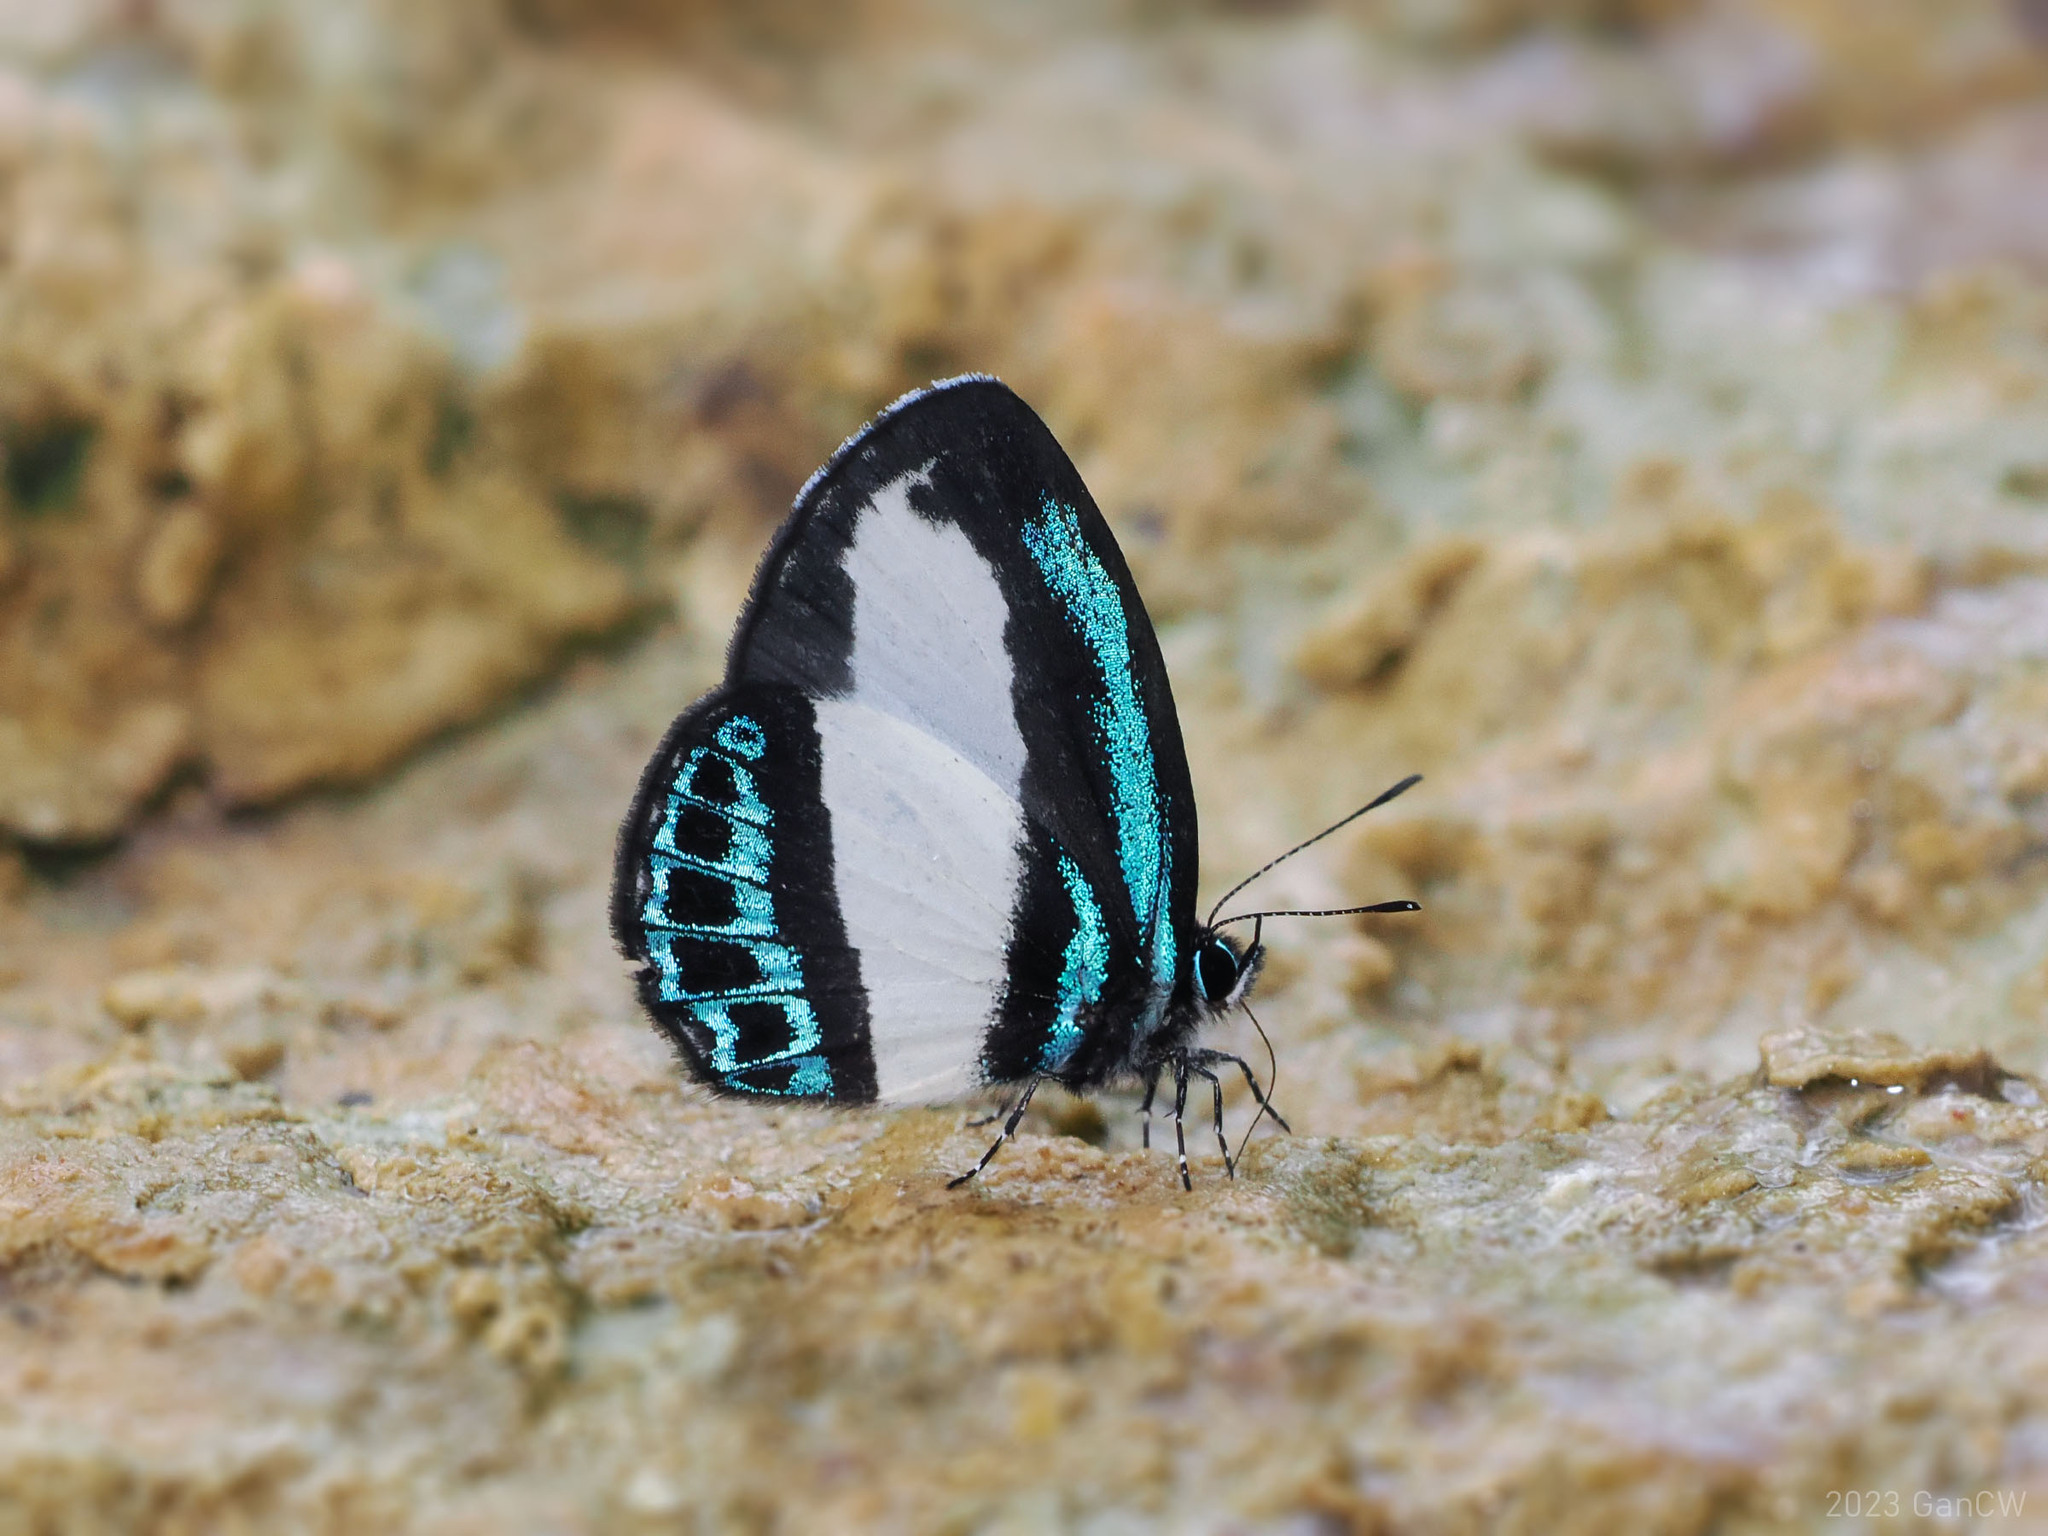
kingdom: Animalia
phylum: Arthropoda
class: Insecta
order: Lepidoptera
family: Lycaenidae
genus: Psychonotis
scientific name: Psychonotis caelius
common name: Small green banded blue
